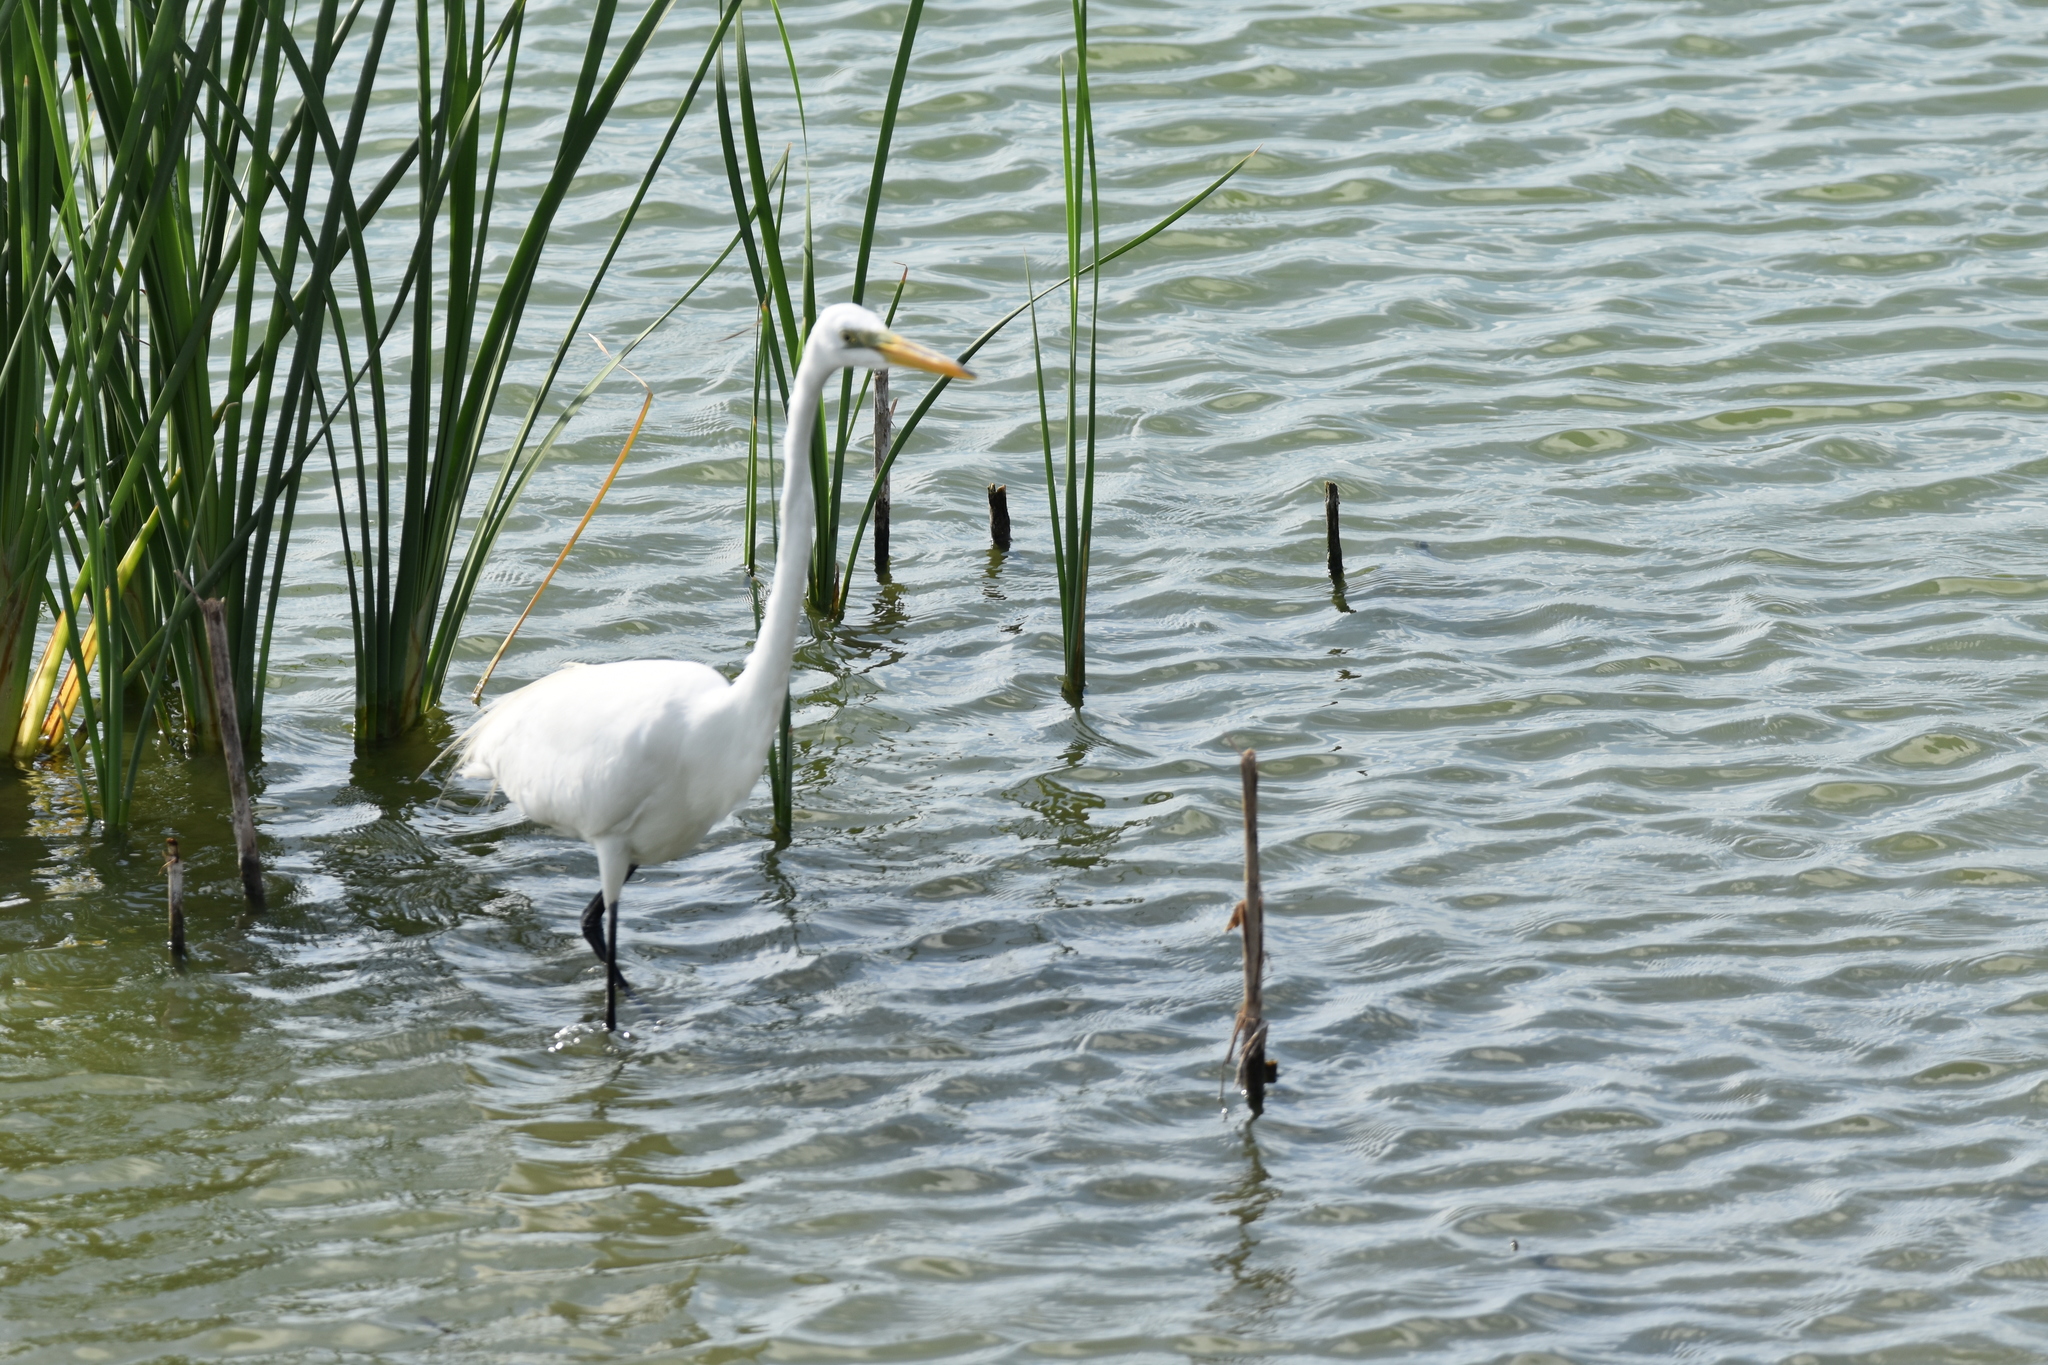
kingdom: Animalia
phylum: Chordata
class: Aves
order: Pelecaniformes
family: Ardeidae
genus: Ardea
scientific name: Ardea alba
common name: Great egret
